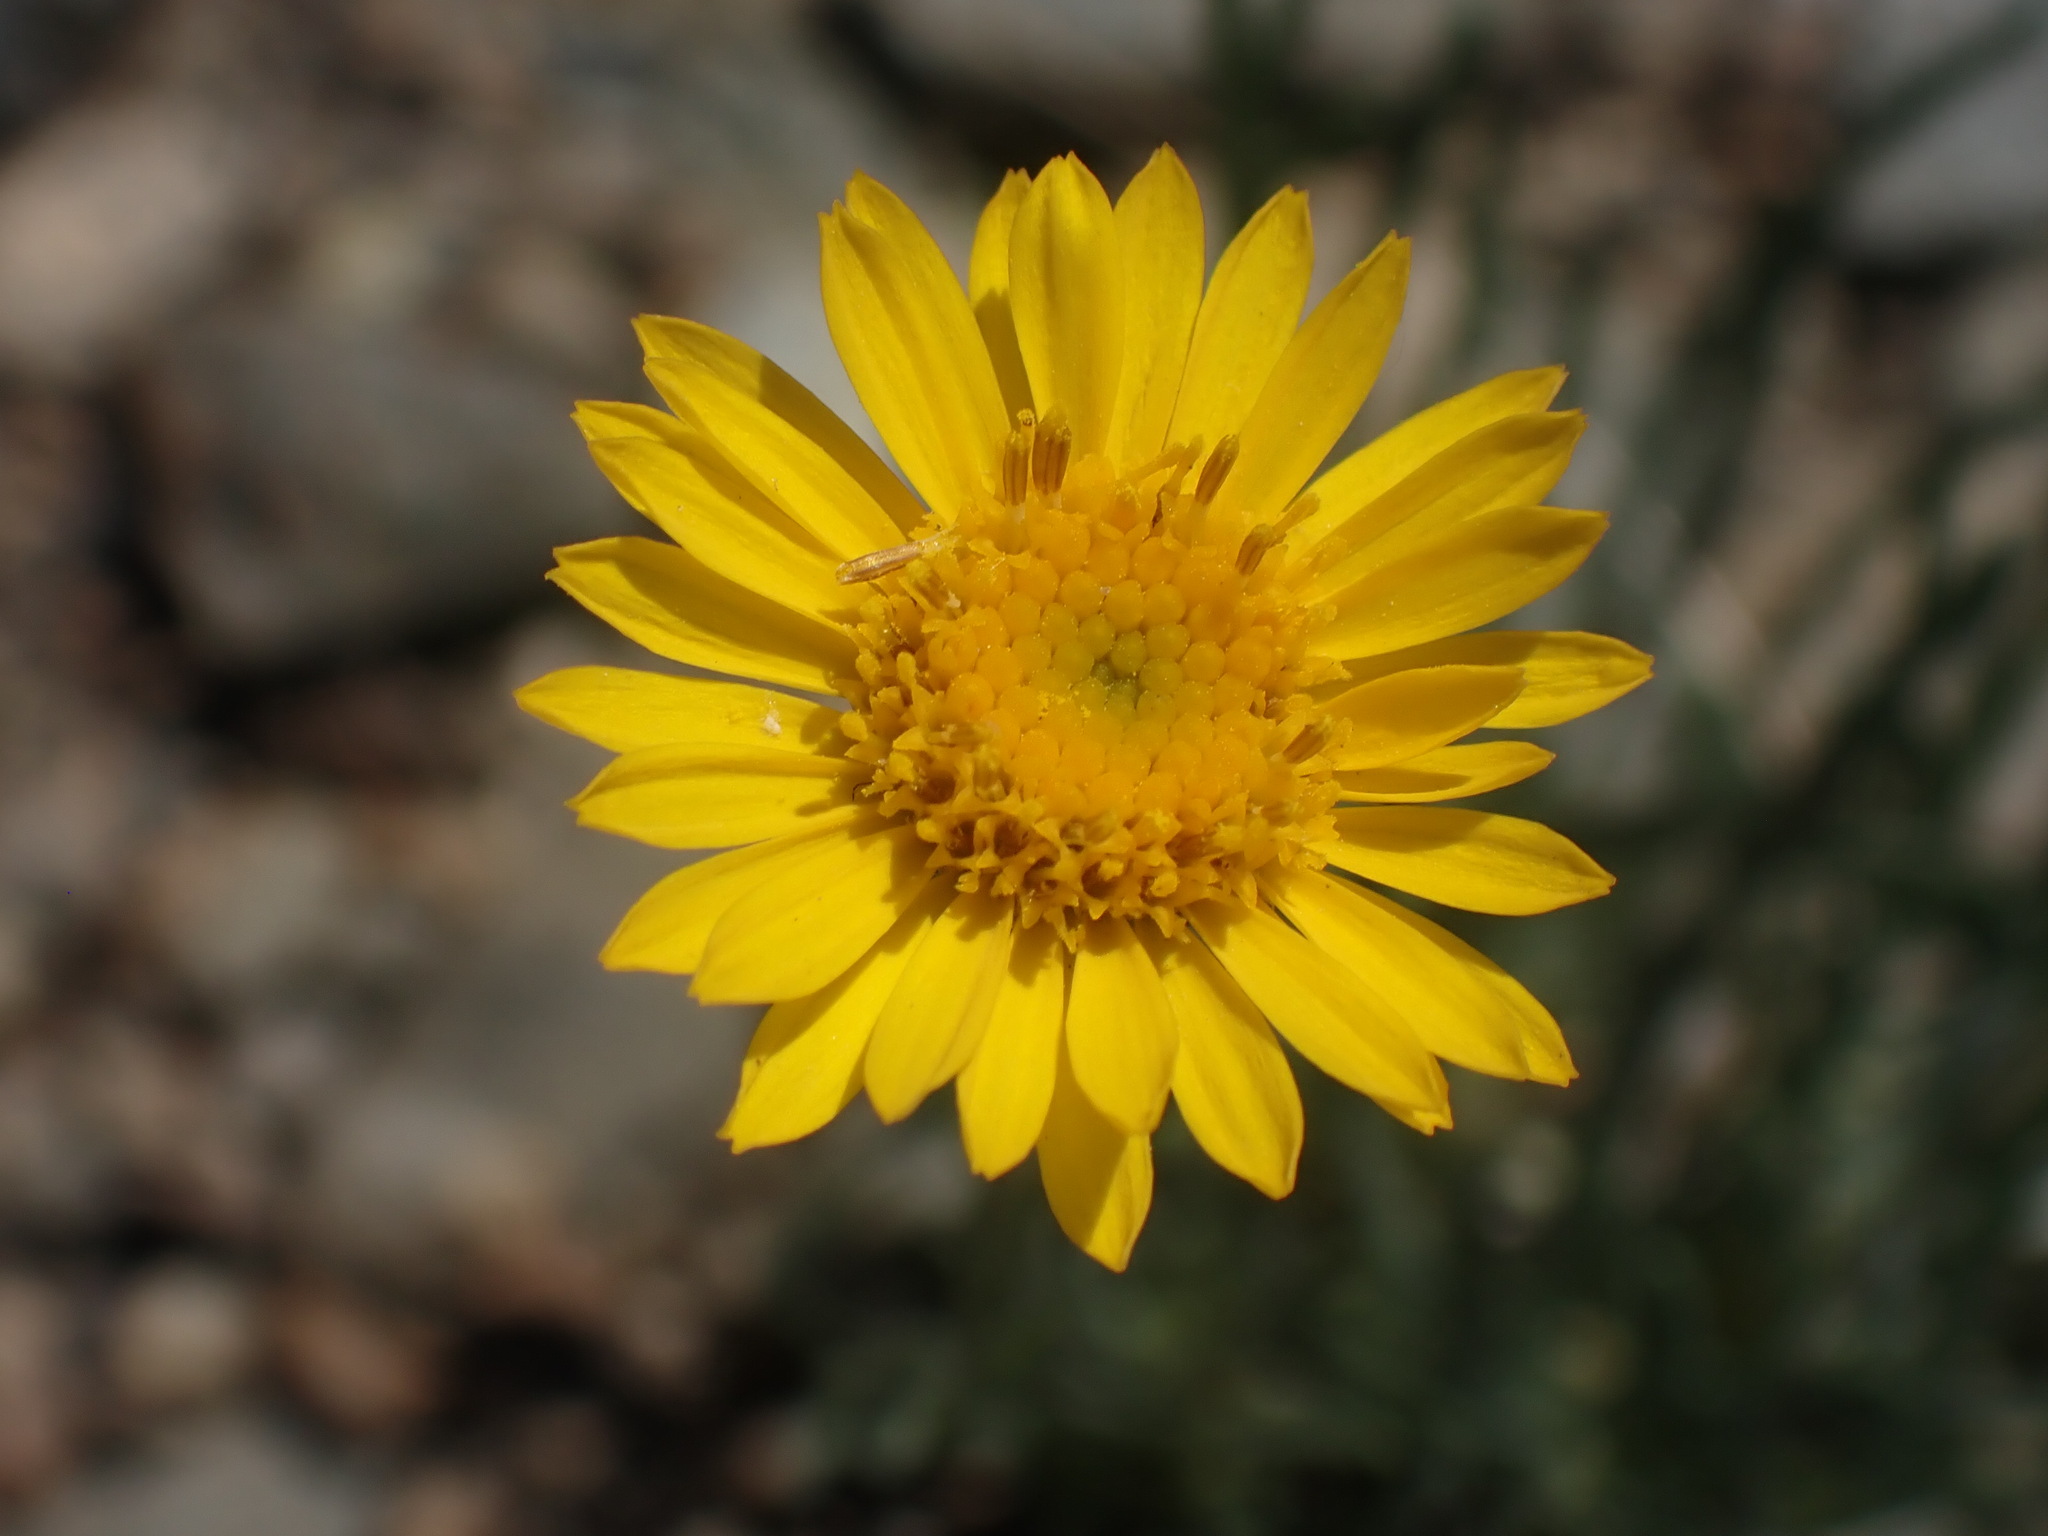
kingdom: Plantae
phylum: Tracheophyta
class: Magnoliopsida
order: Asterales
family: Asteraceae
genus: Erigeron
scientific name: Erigeron linearis
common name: Desert yellow fleabane
